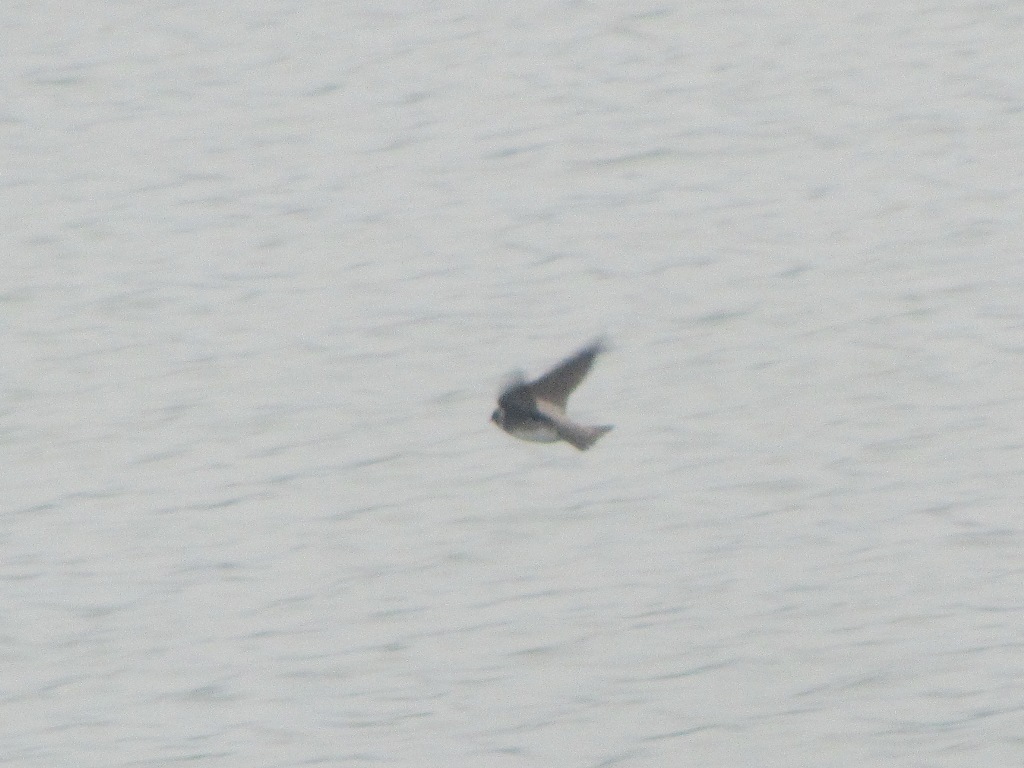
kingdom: Animalia
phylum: Chordata
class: Aves
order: Passeriformes
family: Hirundinidae
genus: Riparia
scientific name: Riparia riparia
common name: Sand martin
